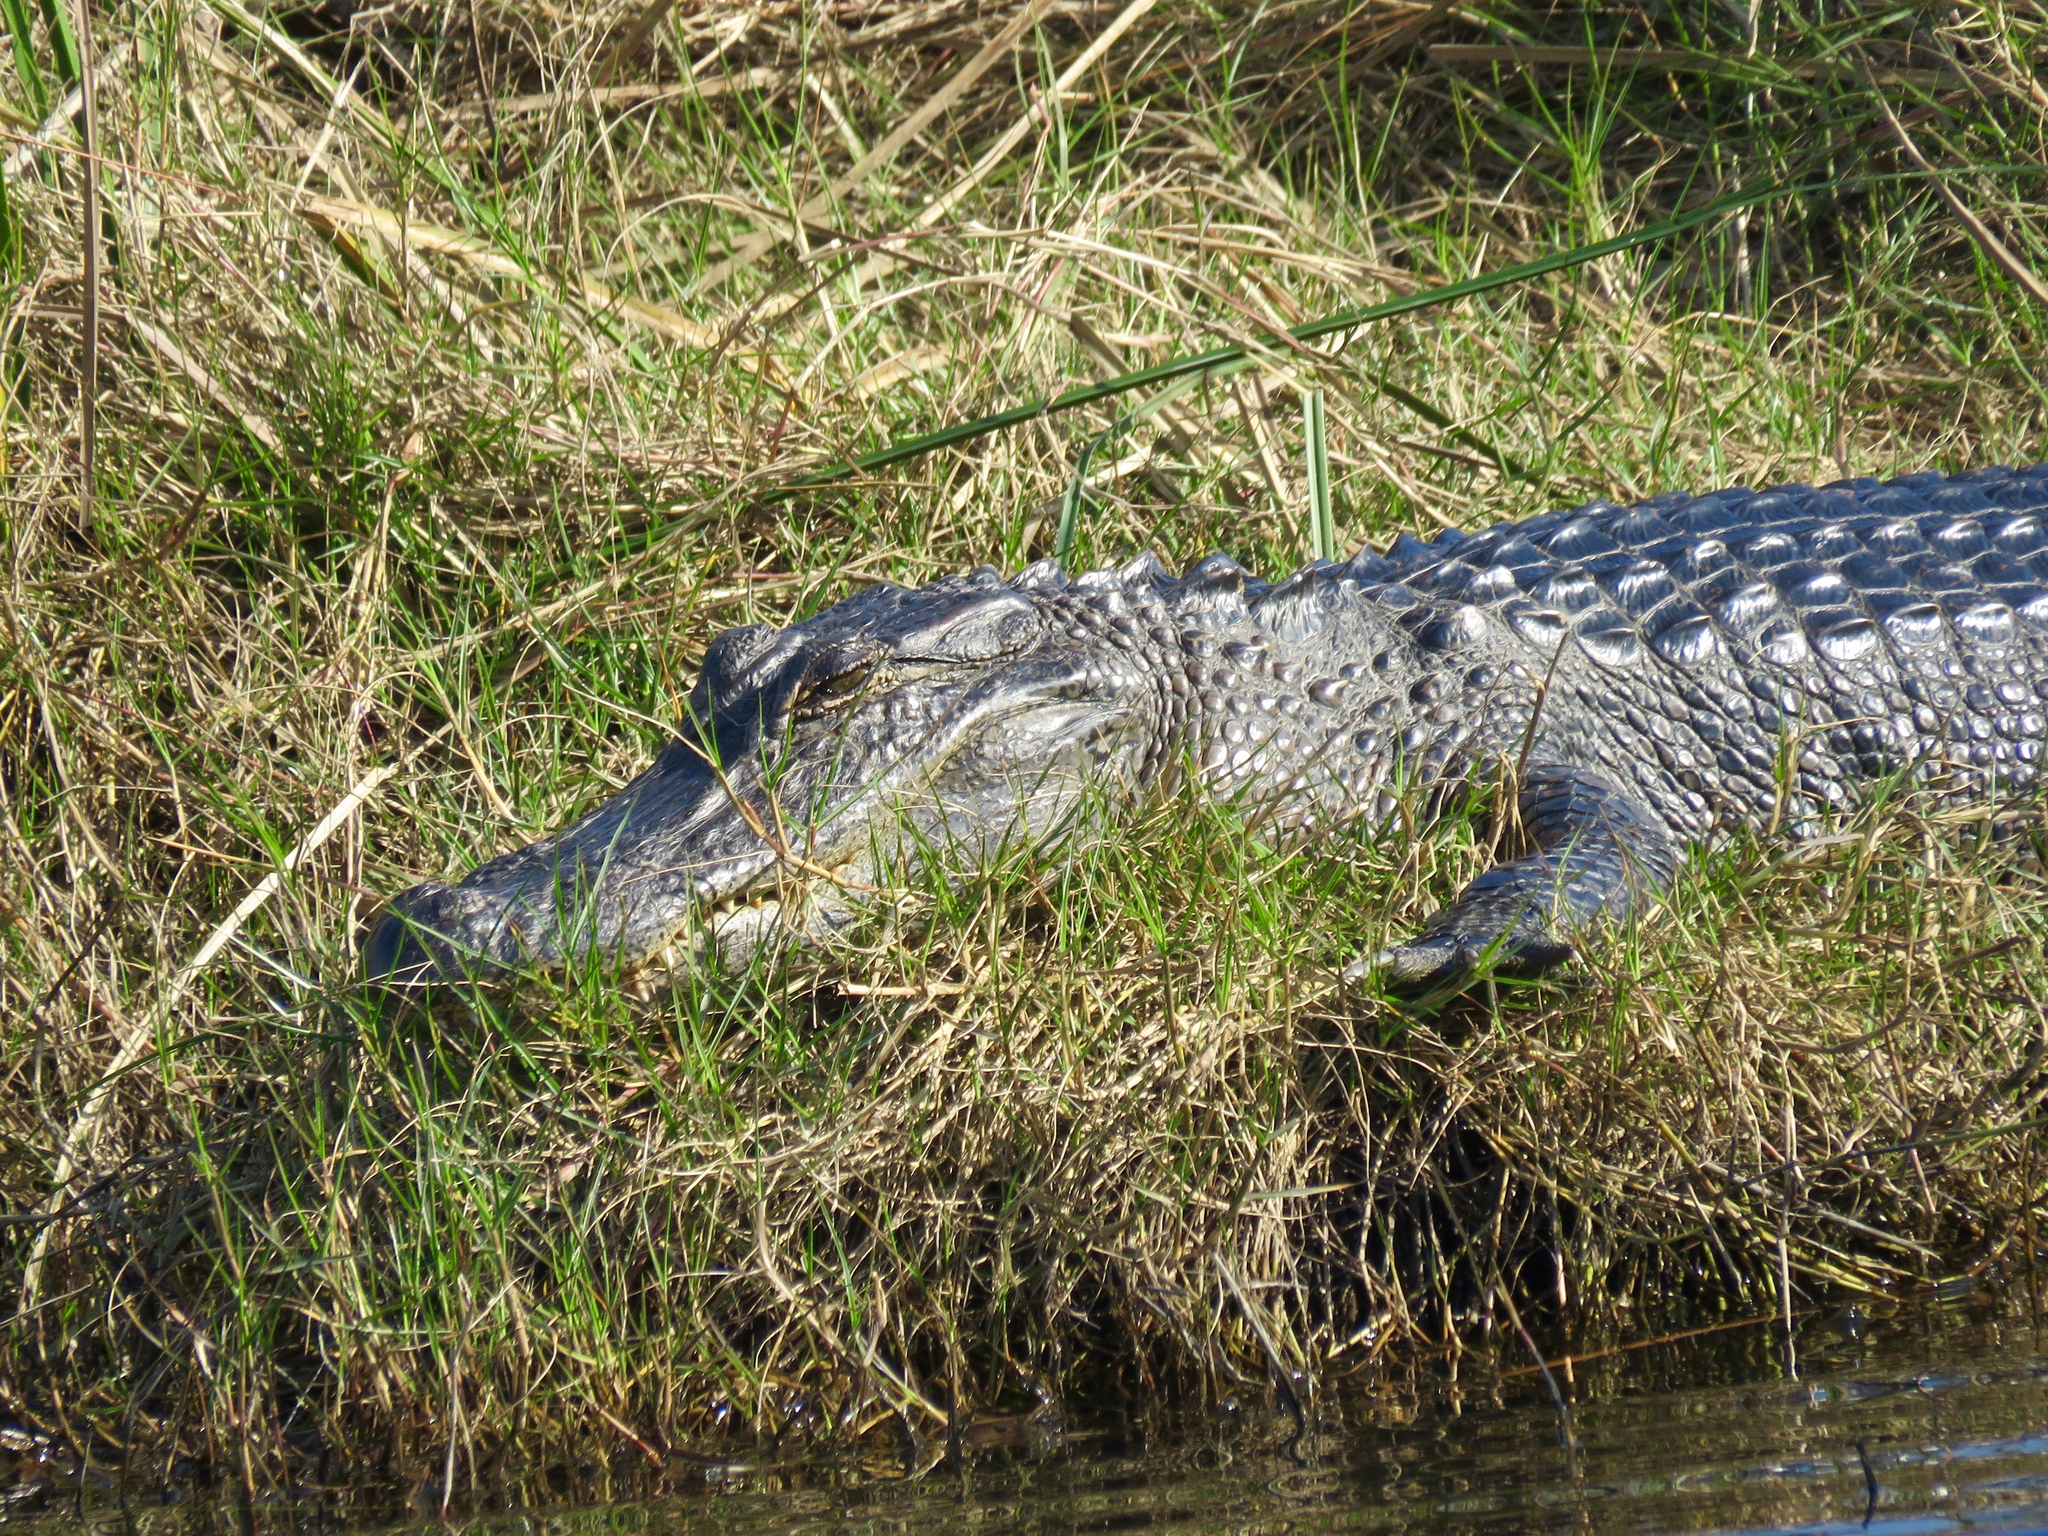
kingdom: Animalia
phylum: Chordata
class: Crocodylia
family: Alligatoridae
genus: Alligator
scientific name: Alligator mississippiensis
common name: American alligator
